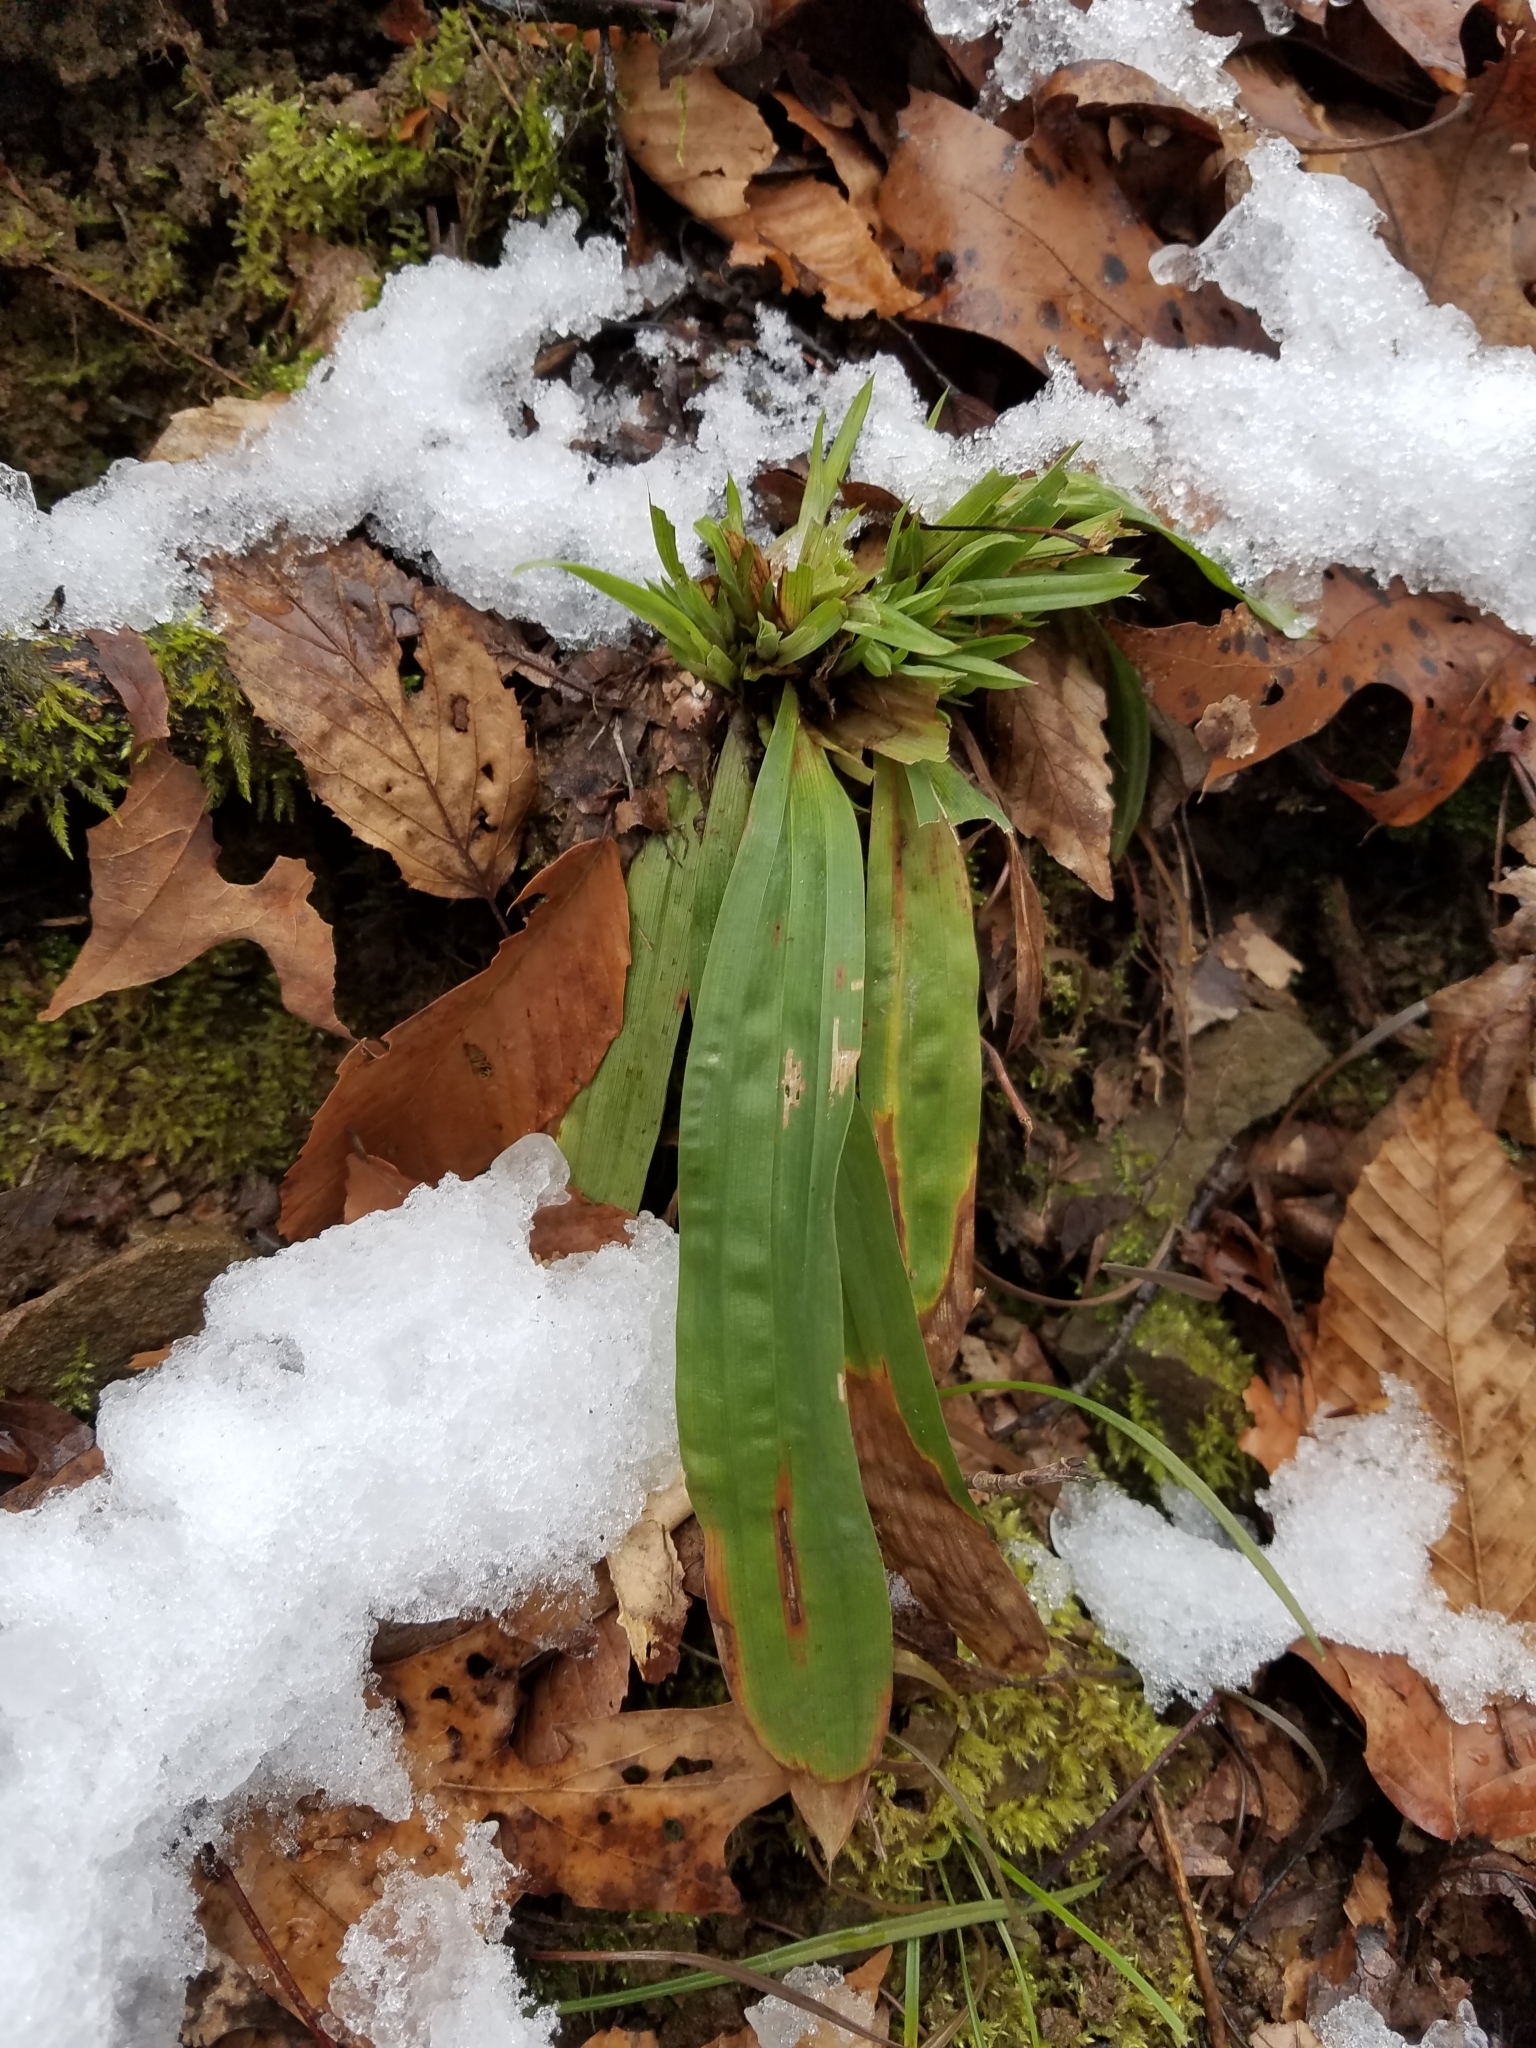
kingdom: Plantae
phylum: Tracheophyta
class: Liliopsida
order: Poales
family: Cyperaceae
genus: Carex
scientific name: Carex plantaginea
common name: Plantain-leaved sedge
